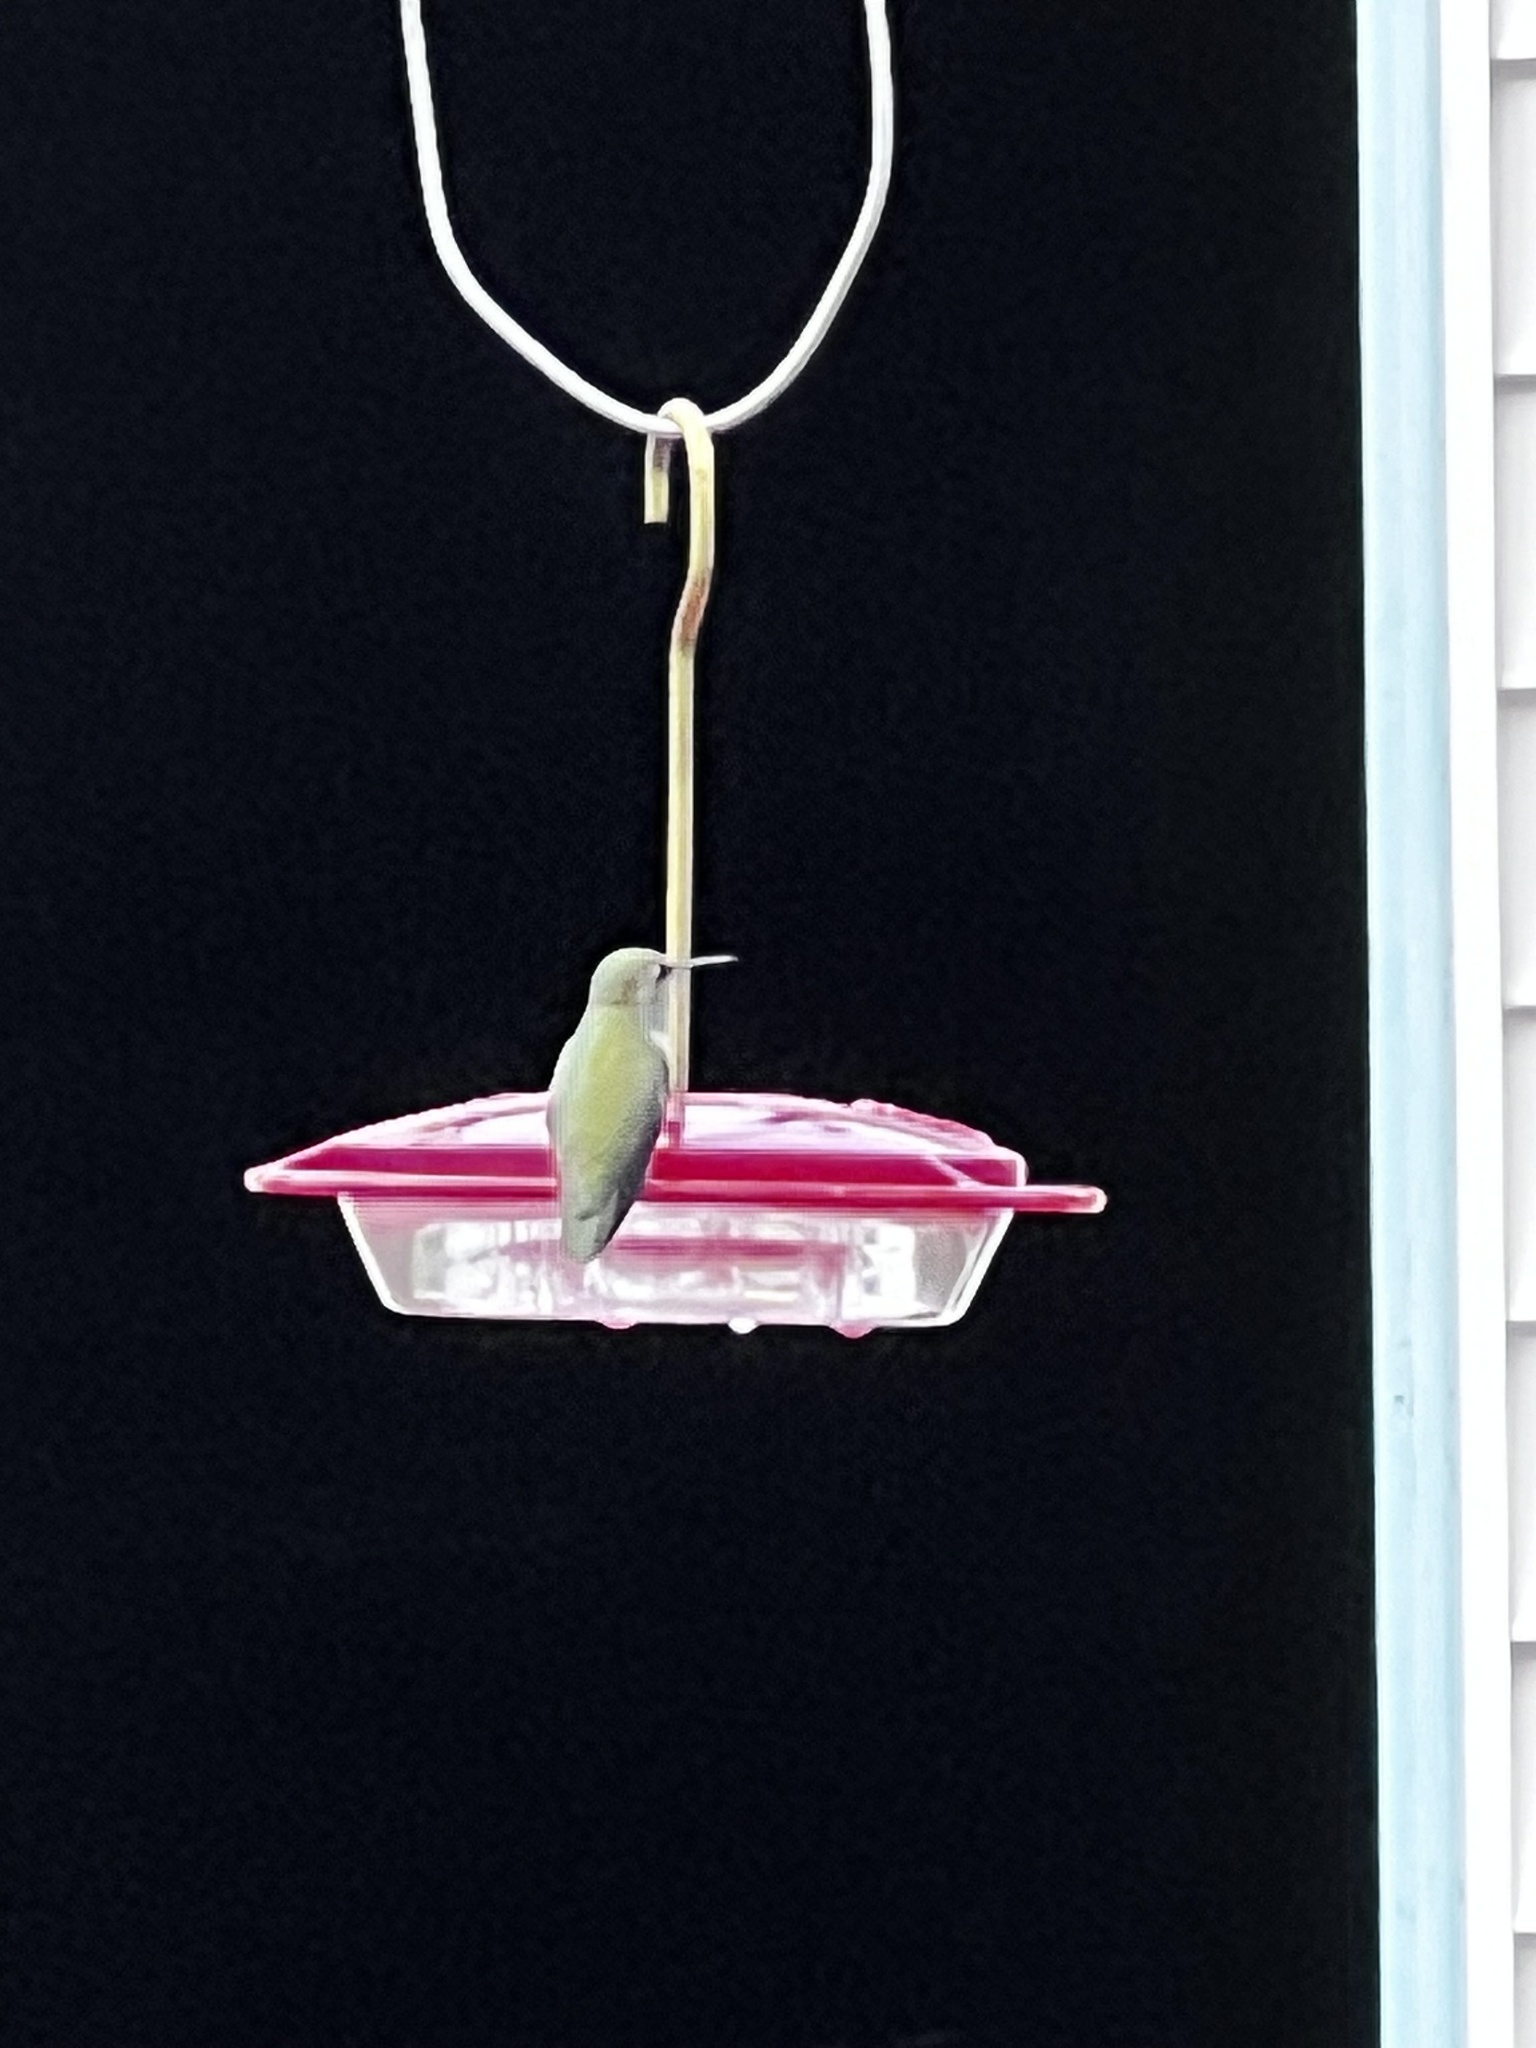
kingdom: Animalia
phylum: Chordata
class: Aves
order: Apodiformes
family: Trochilidae
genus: Calypte
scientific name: Calypte anna
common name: Anna's hummingbird
